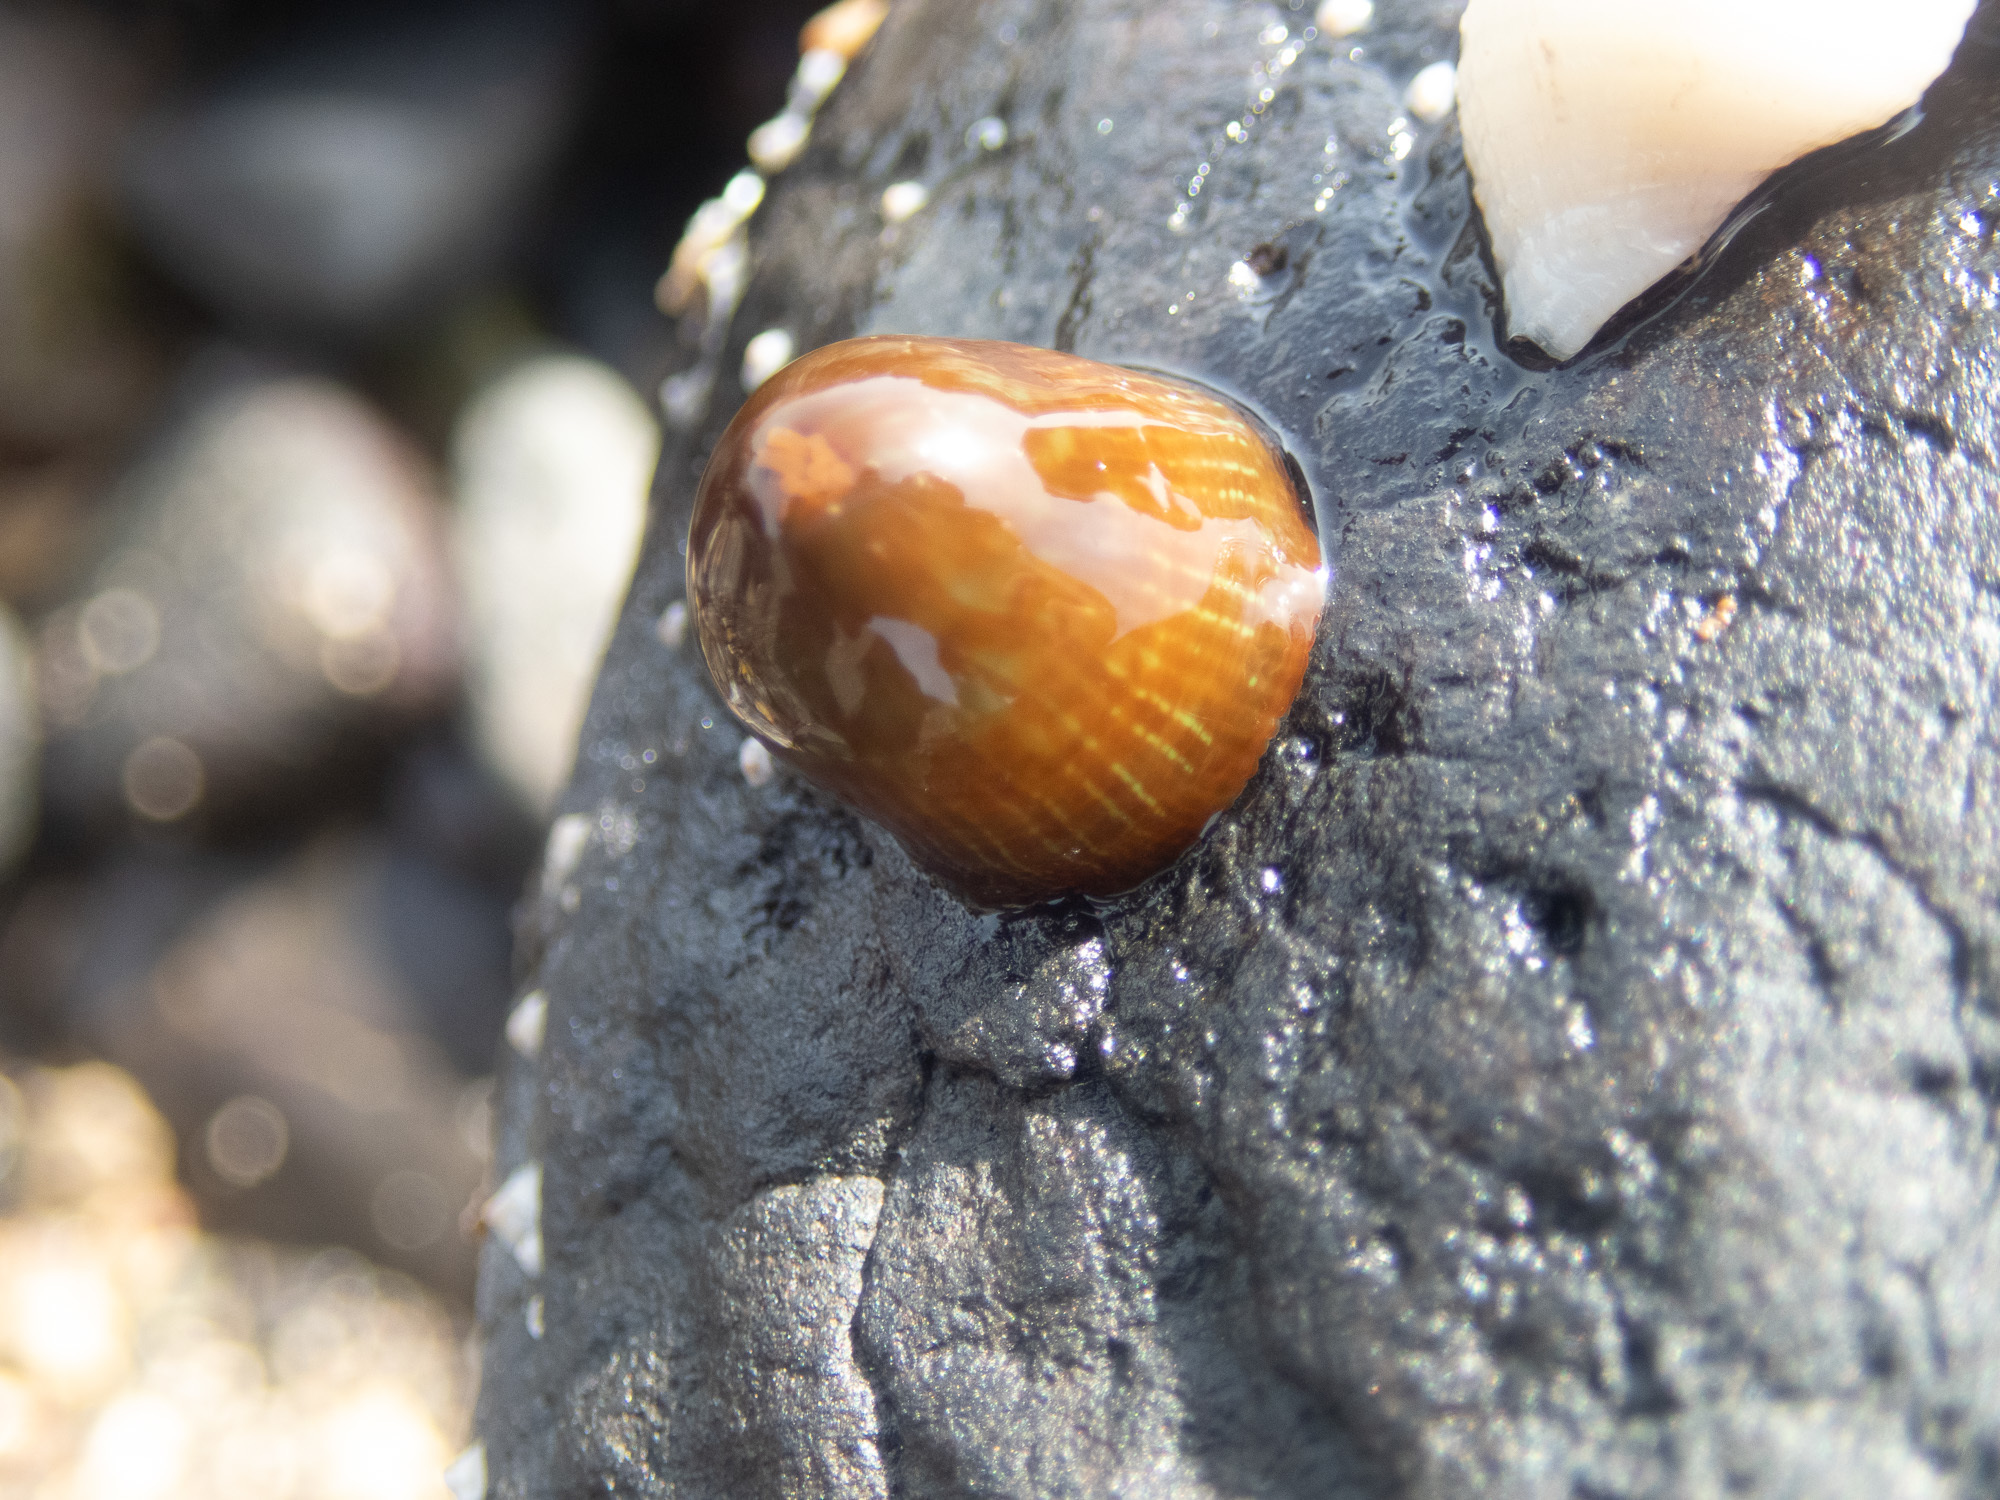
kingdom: Animalia
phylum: Cnidaria
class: Anthozoa
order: Actiniaria
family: Actiniidae
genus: Actinia
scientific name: Actinia equina
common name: Beadlet anemone
